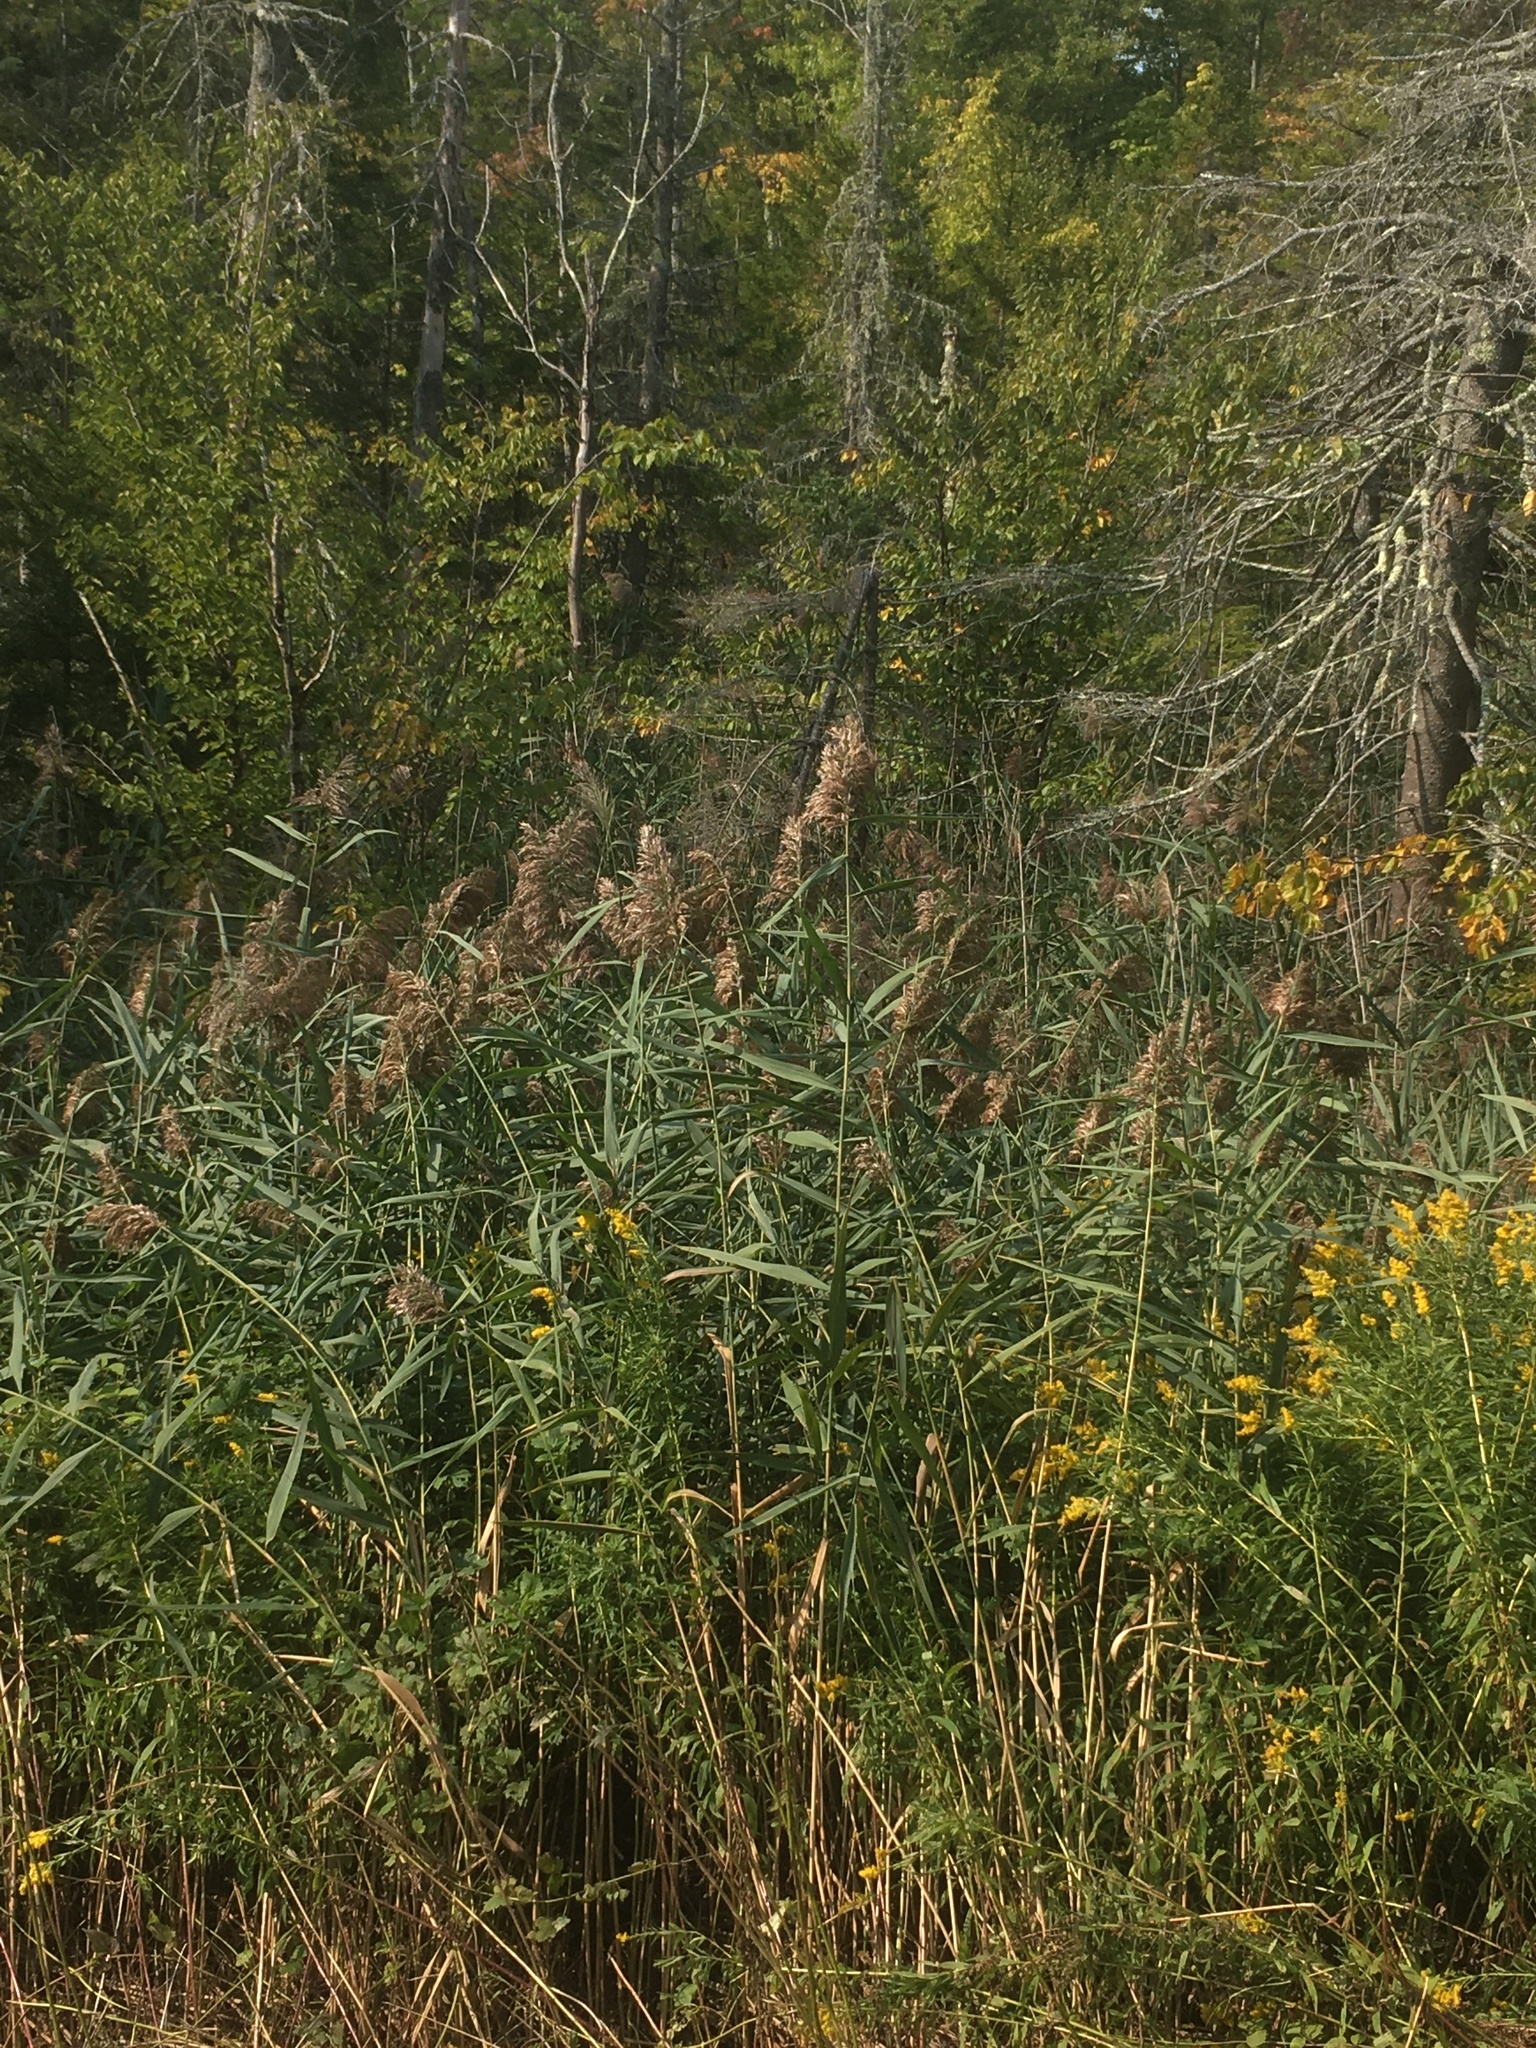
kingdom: Plantae
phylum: Tracheophyta
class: Liliopsida
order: Poales
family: Poaceae
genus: Phragmites
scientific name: Phragmites australis
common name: Common reed
